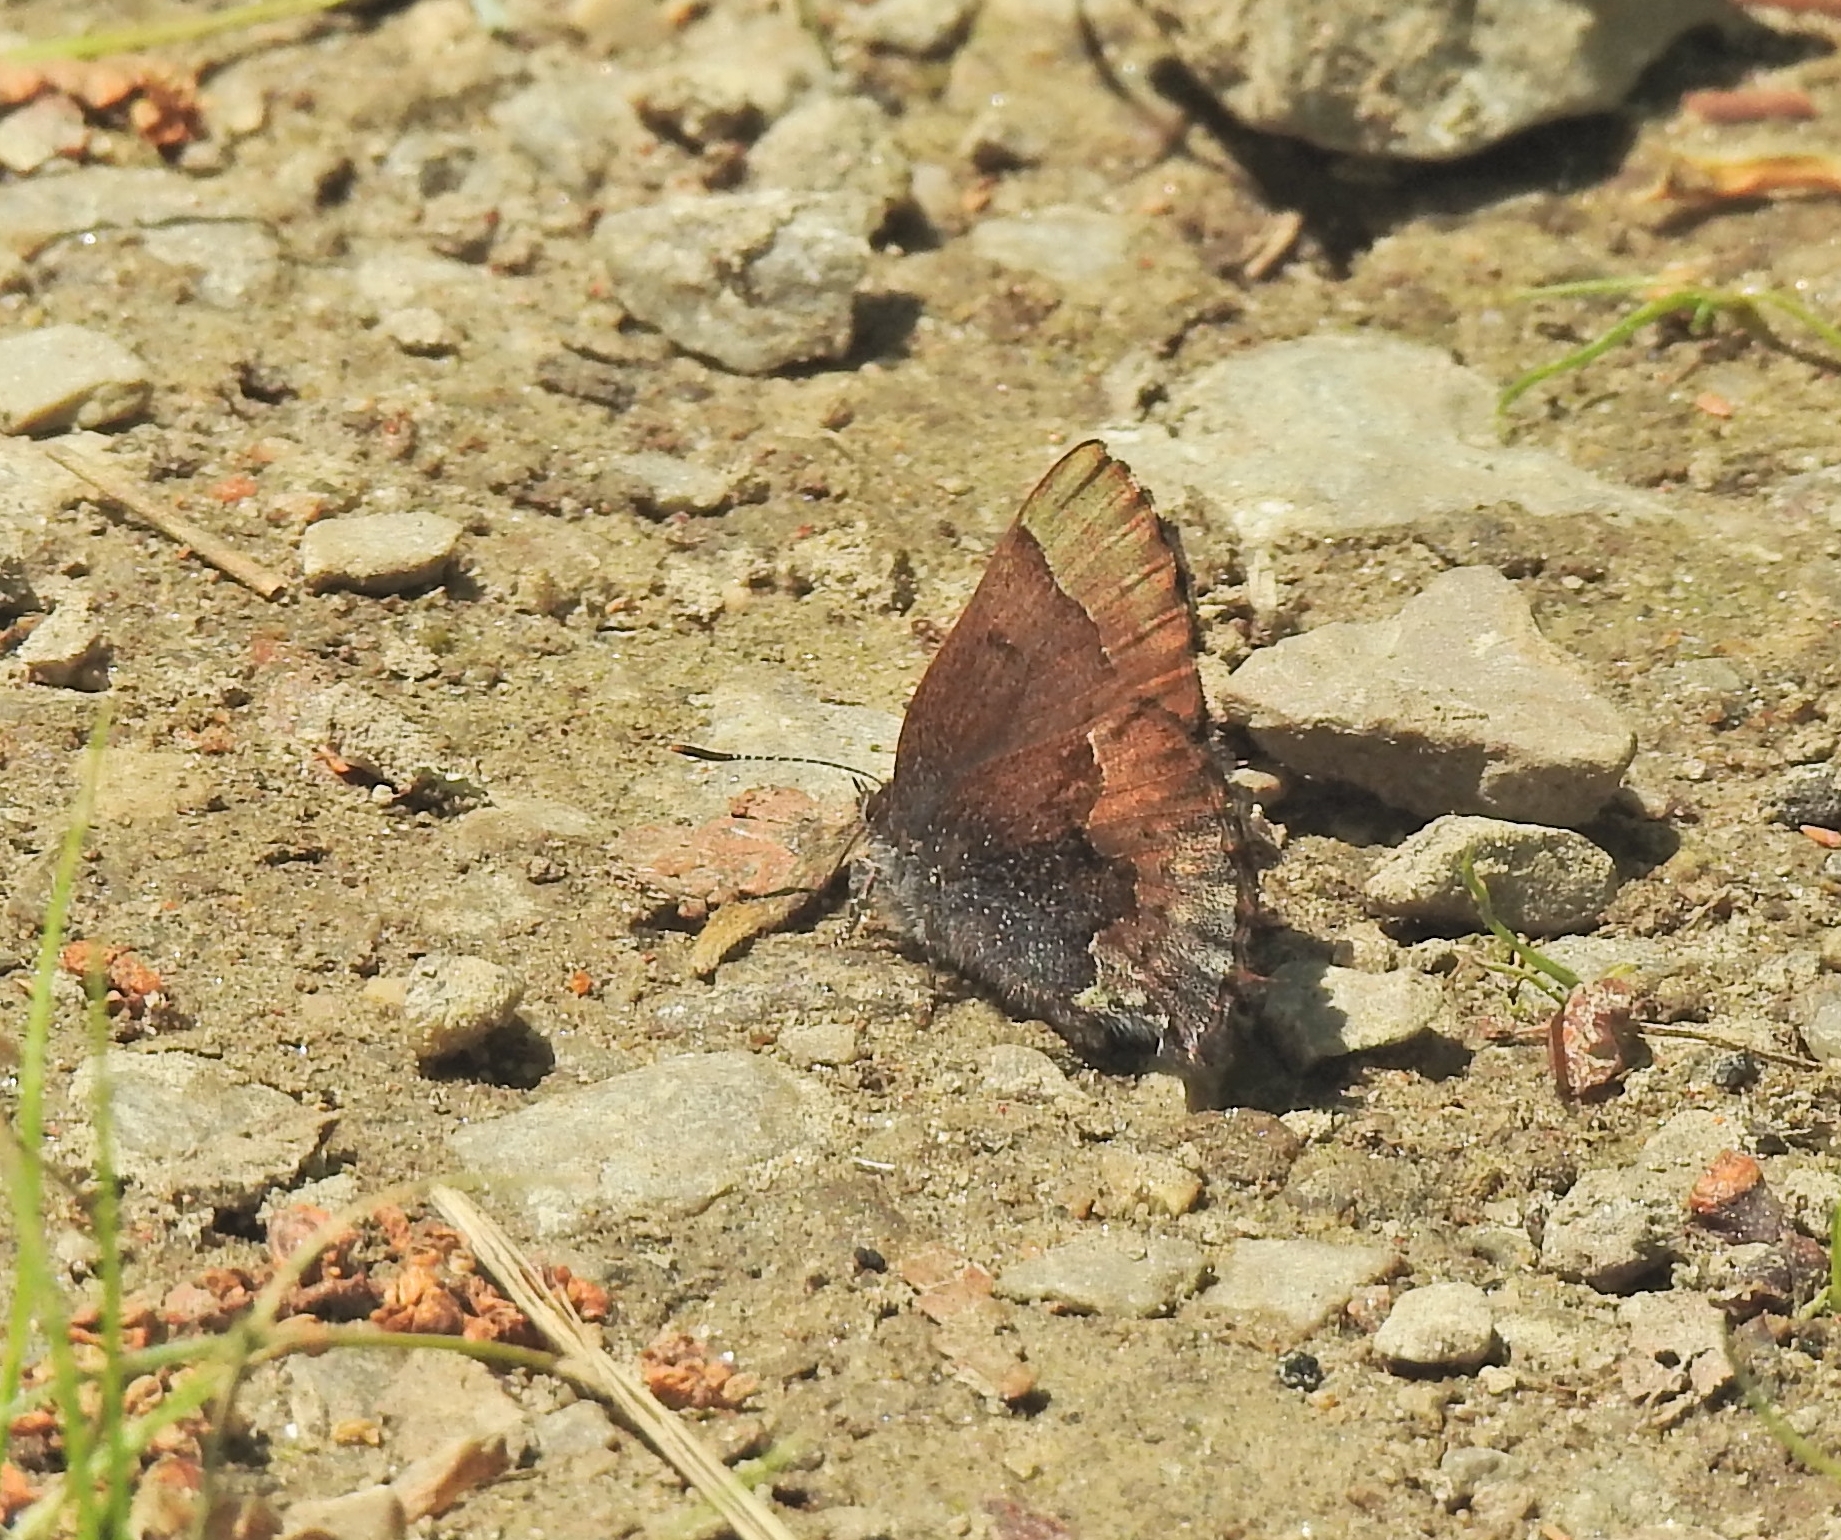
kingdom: Animalia
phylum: Arthropoda
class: Insecta
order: Lepidoptera
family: Lycaenidae
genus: Incisalia
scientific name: Incisalia henrici
